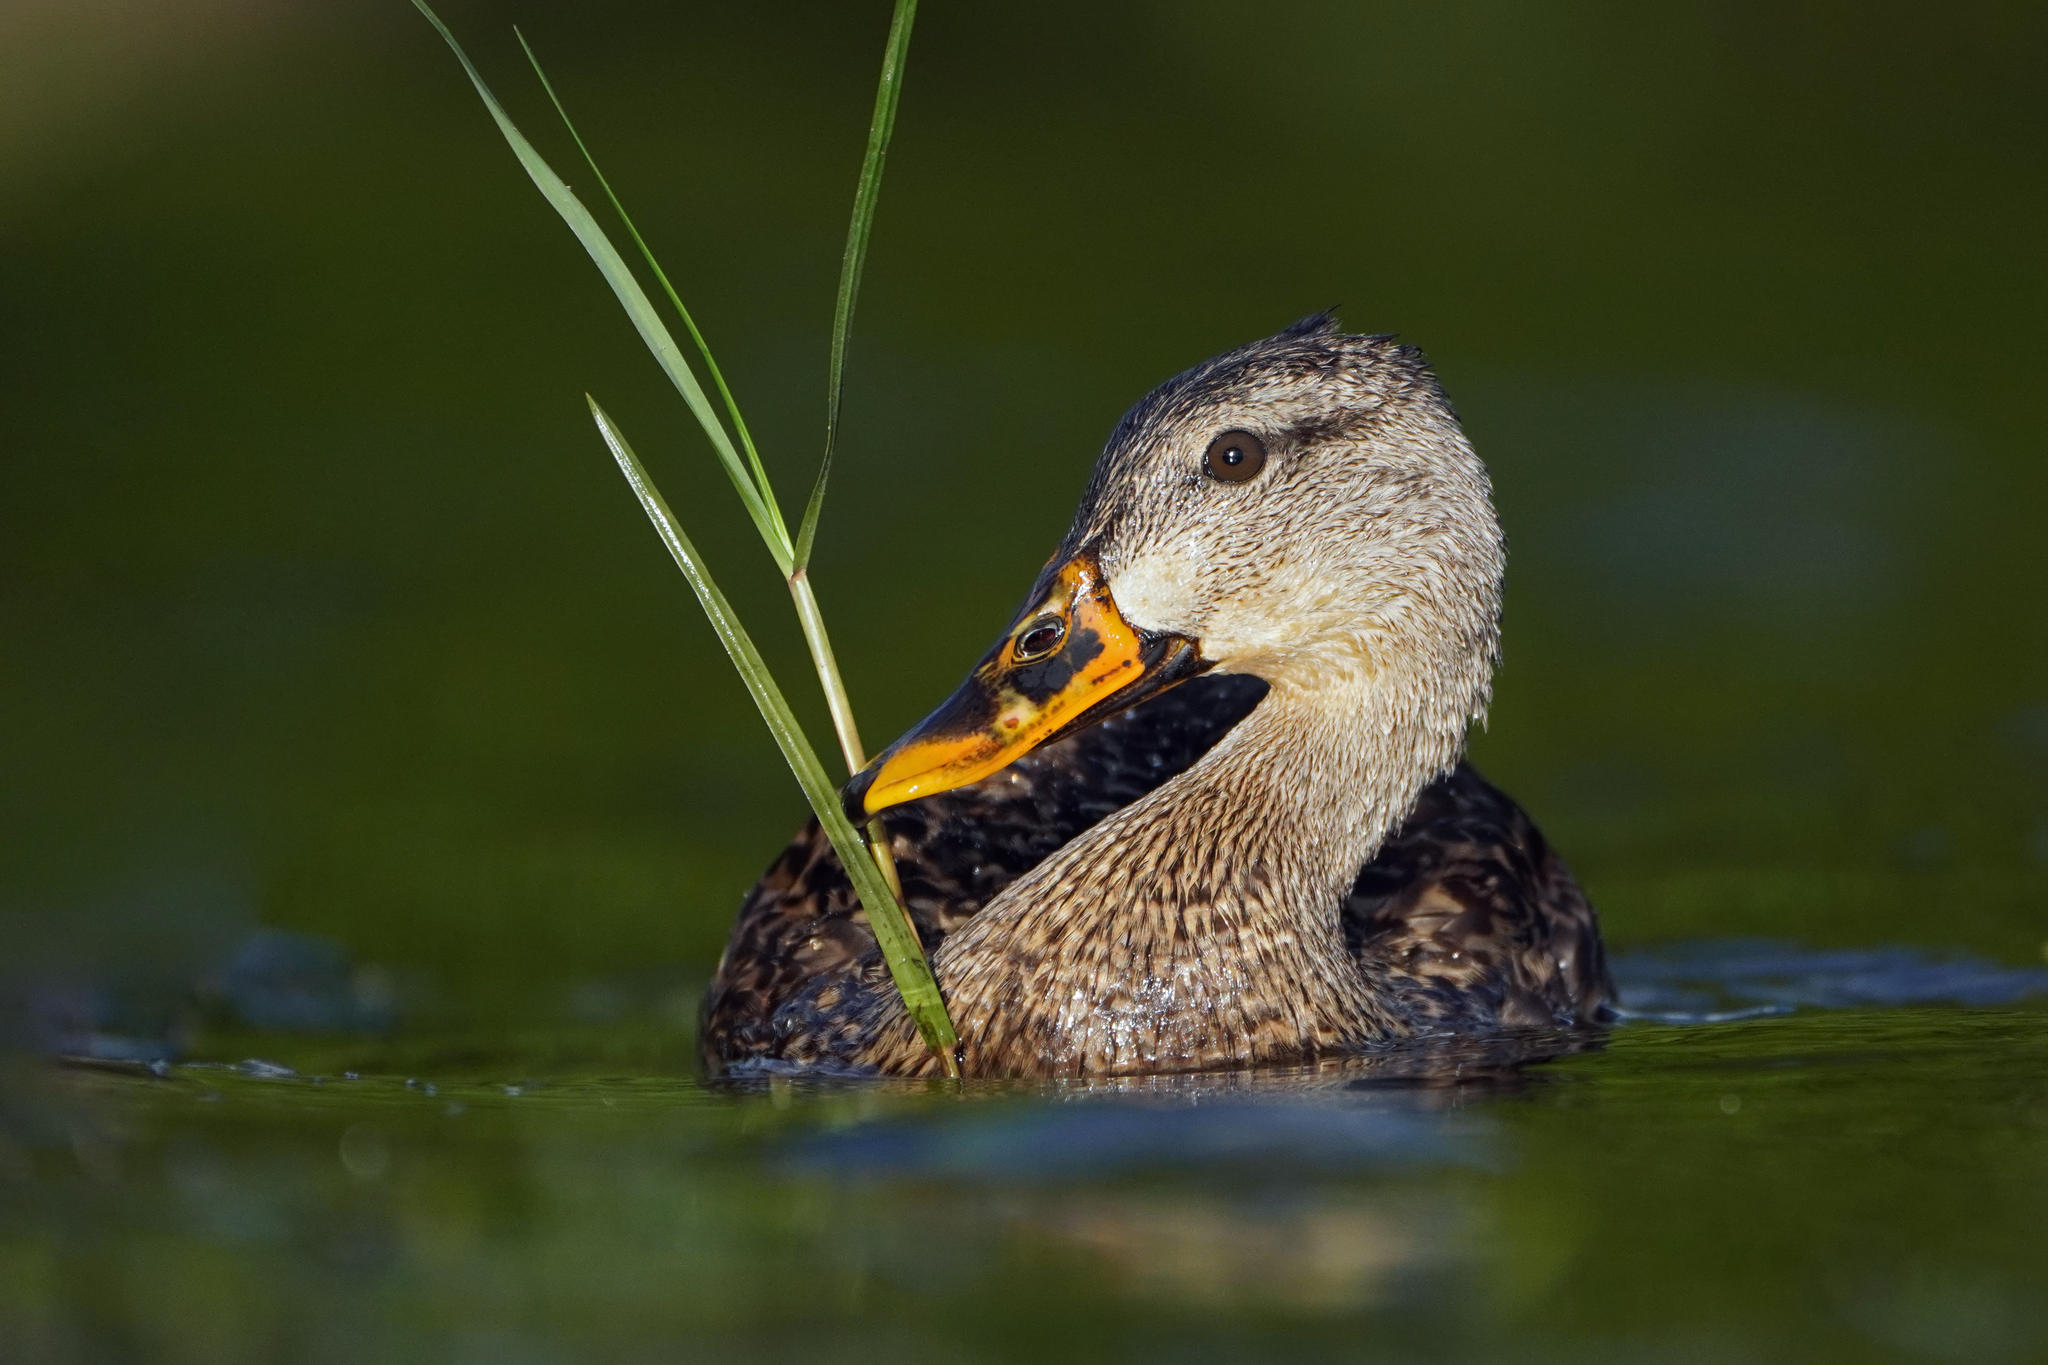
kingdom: Animalia
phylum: Chordata
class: Aves
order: Anseriformes
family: Anatidae
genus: Anas
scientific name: Anas
